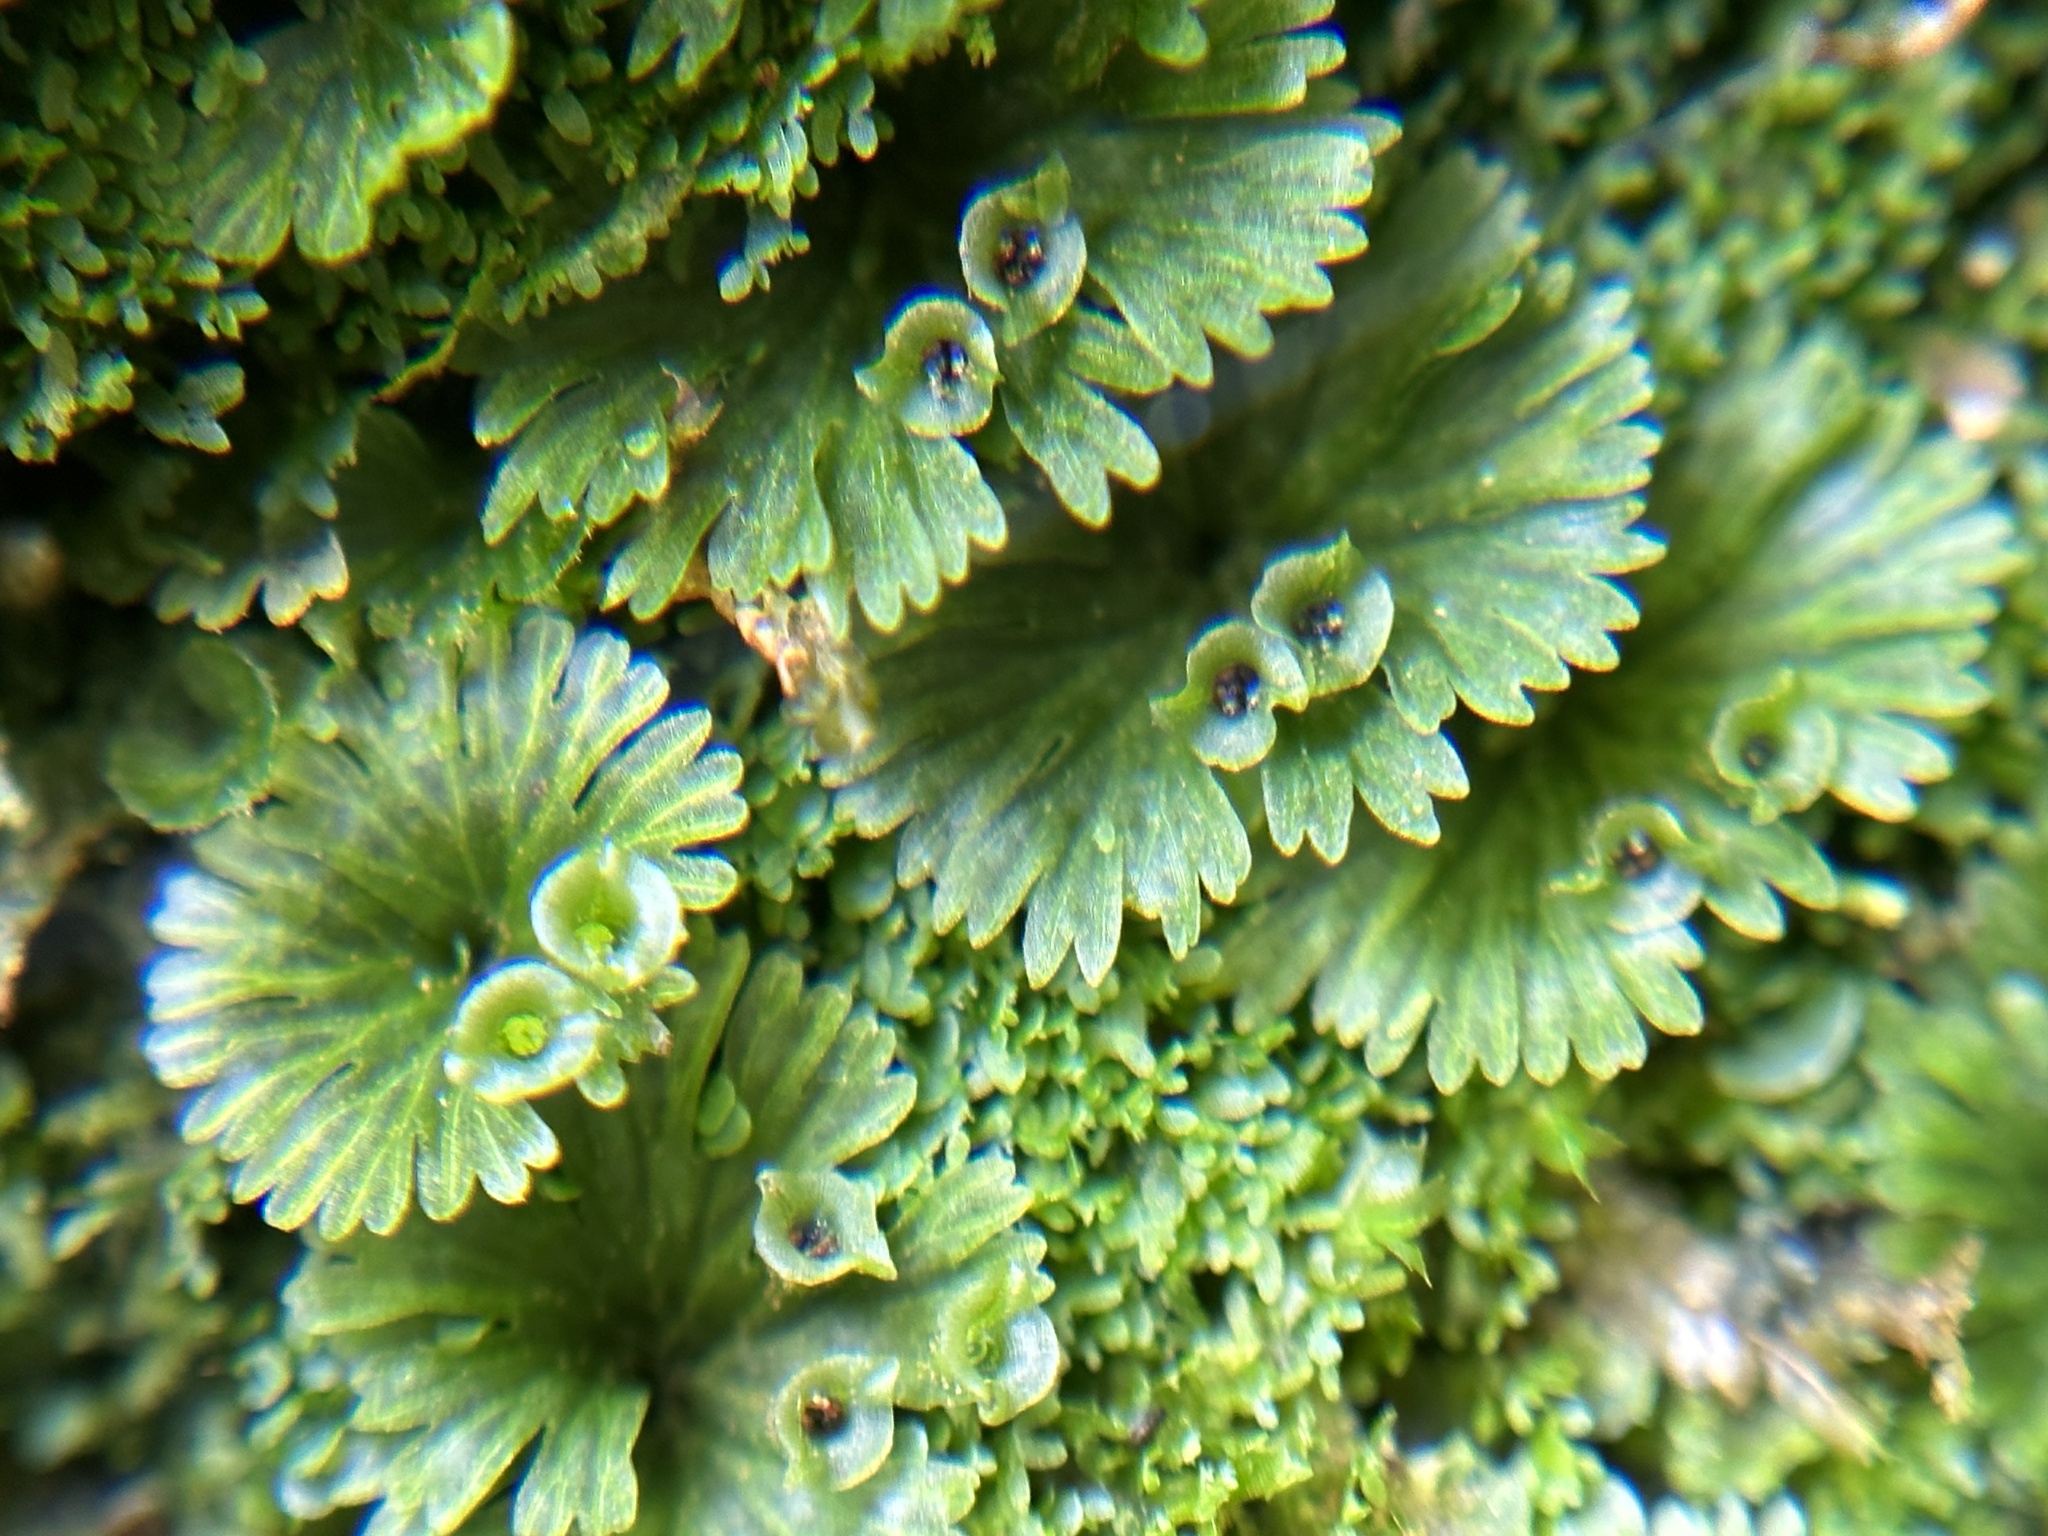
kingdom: Plantae
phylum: Tracheophyta
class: Polypodiopsida
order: Hymenophyllales
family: Hymenophyllaceae
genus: Crepidomanes
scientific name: Crepidomanes parvulum
